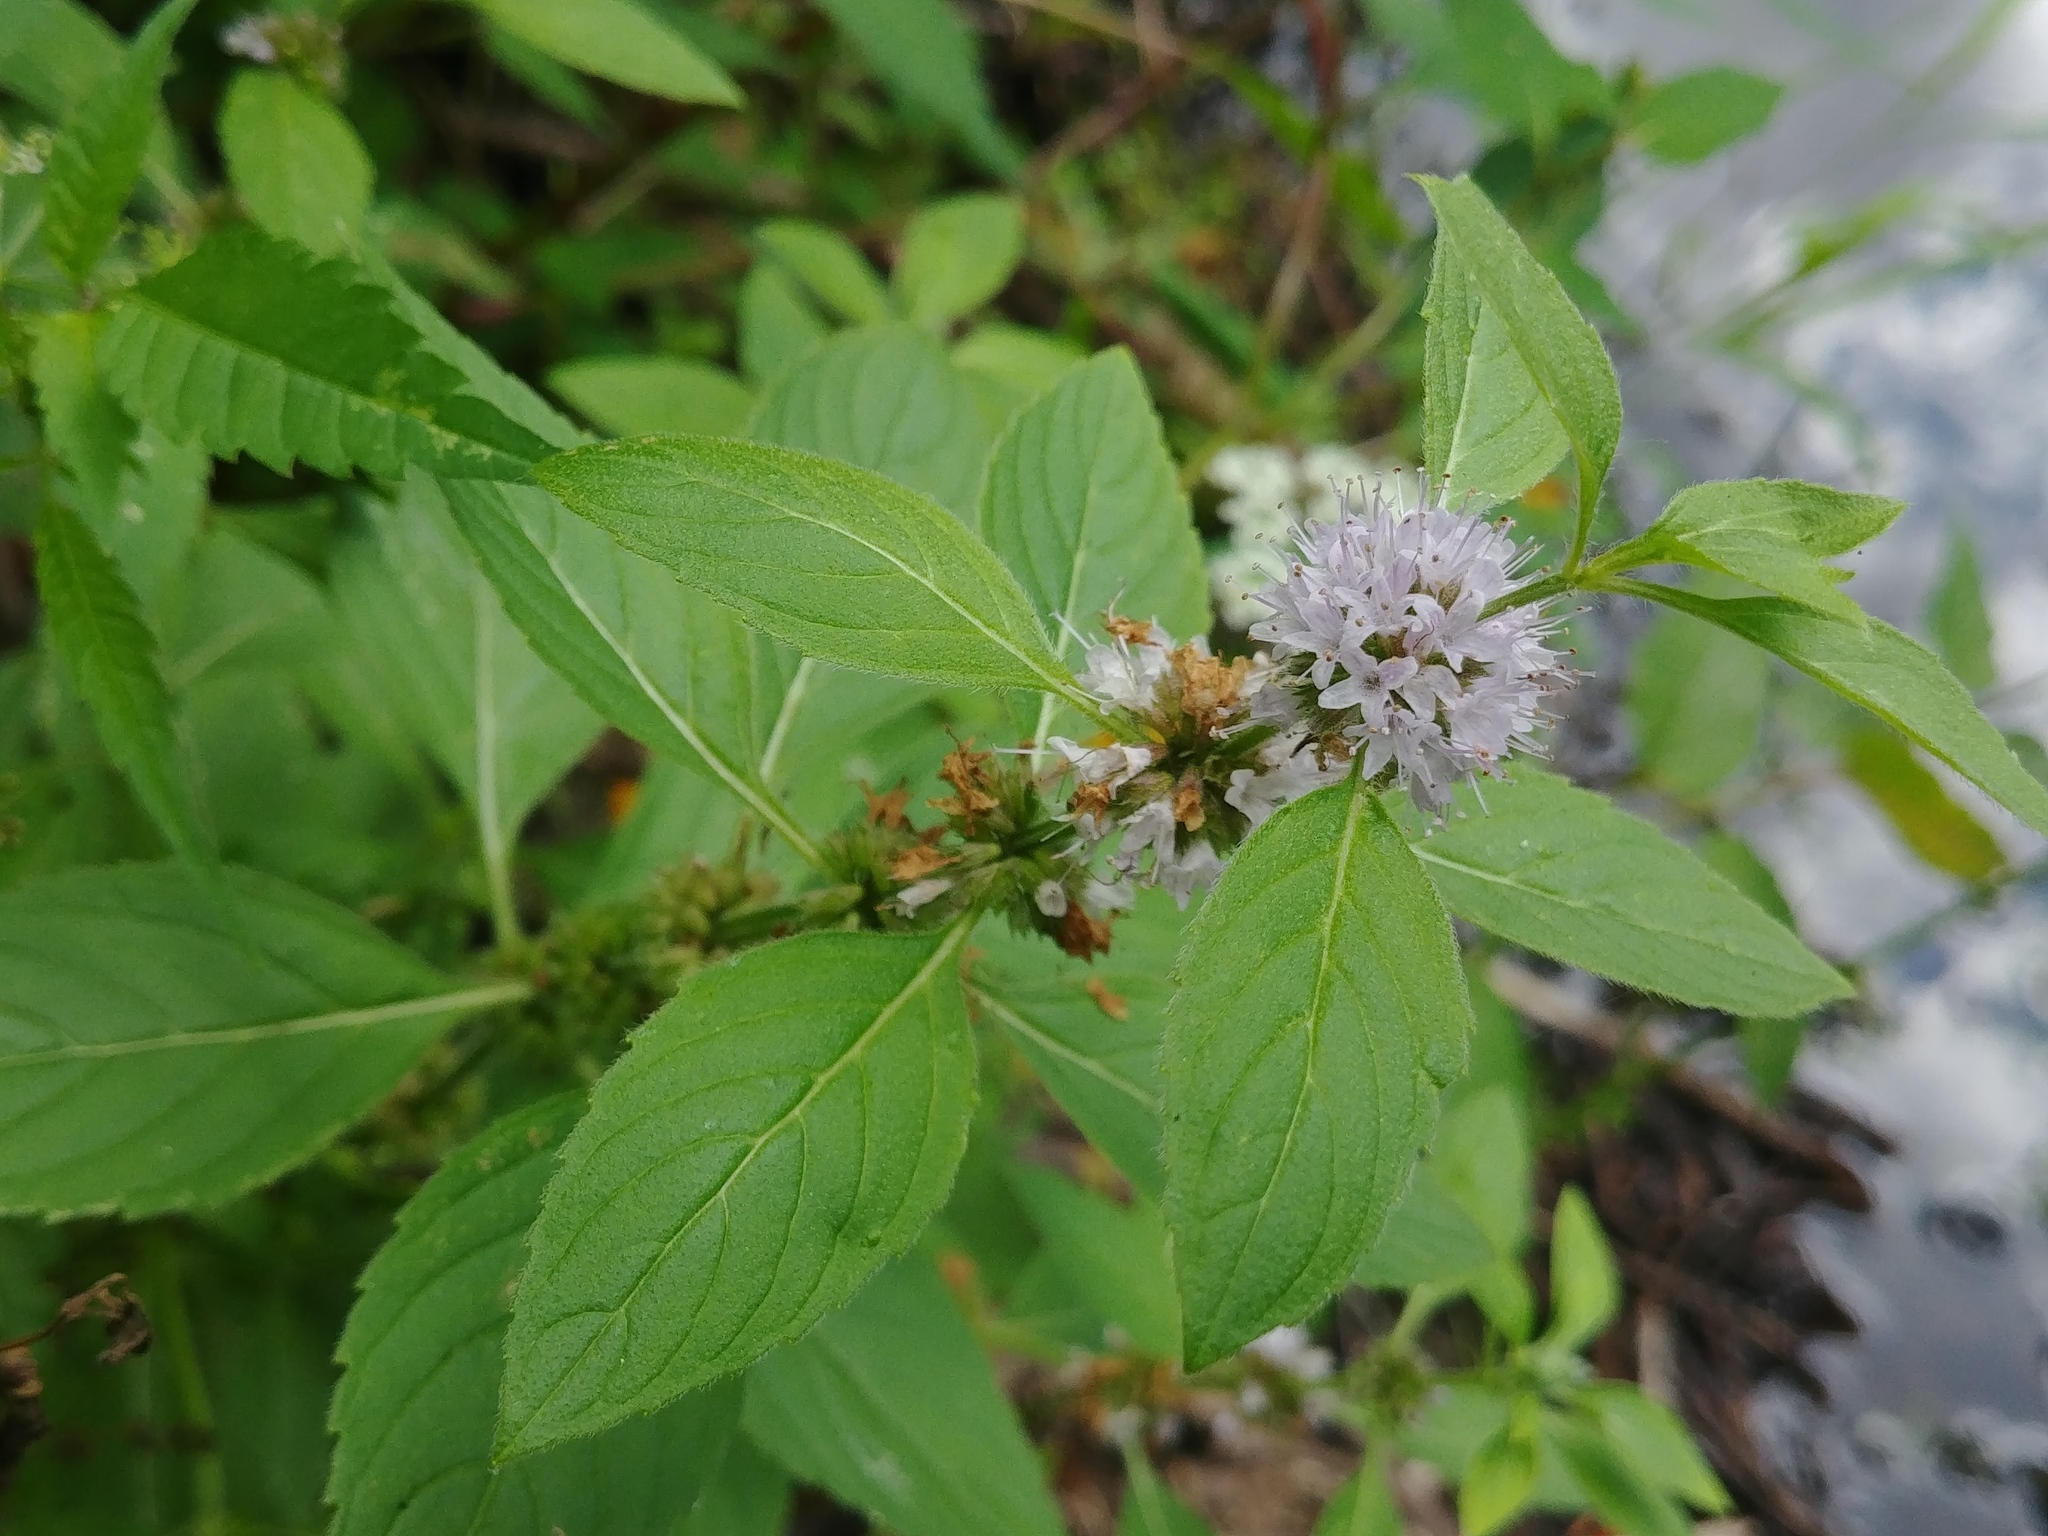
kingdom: Plantae
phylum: Tracheophyta
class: Magnoliopsida
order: Lamiales
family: Lamiaceae
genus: Mentha
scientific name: Mentha canadensis
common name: American corn mint
